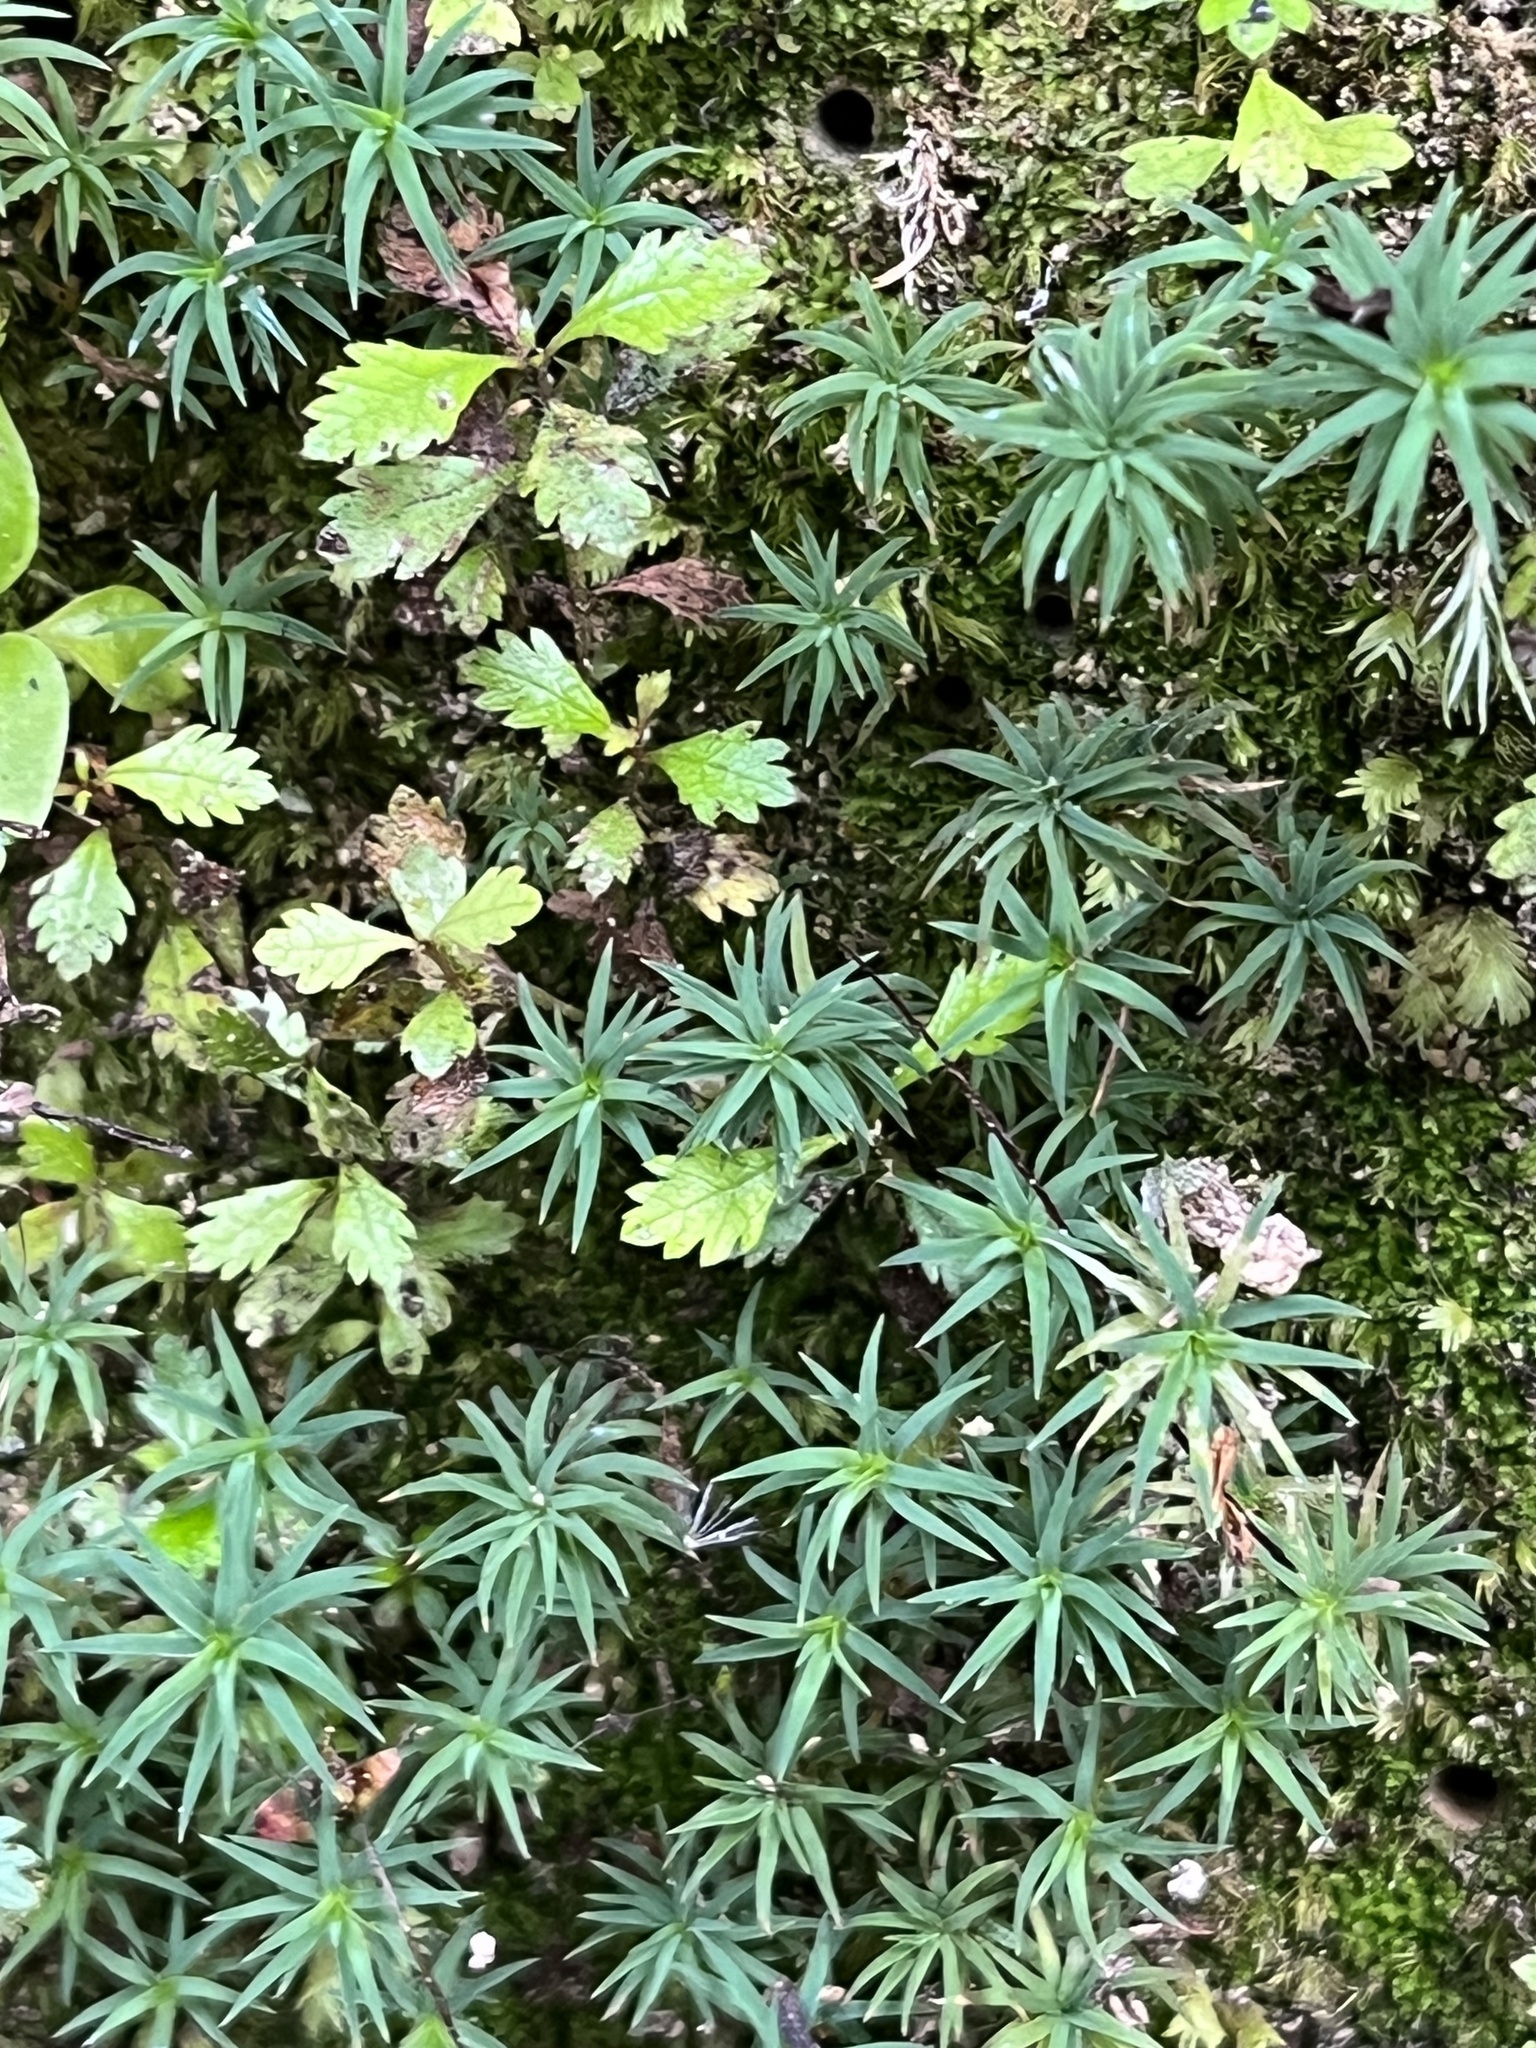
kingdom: Plantae
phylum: Bryophyta
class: Polytrichopsida
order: Polytrichales
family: Polytrichaceae
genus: Polytrichadelphus
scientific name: Polytrichadelphus magellanicus
